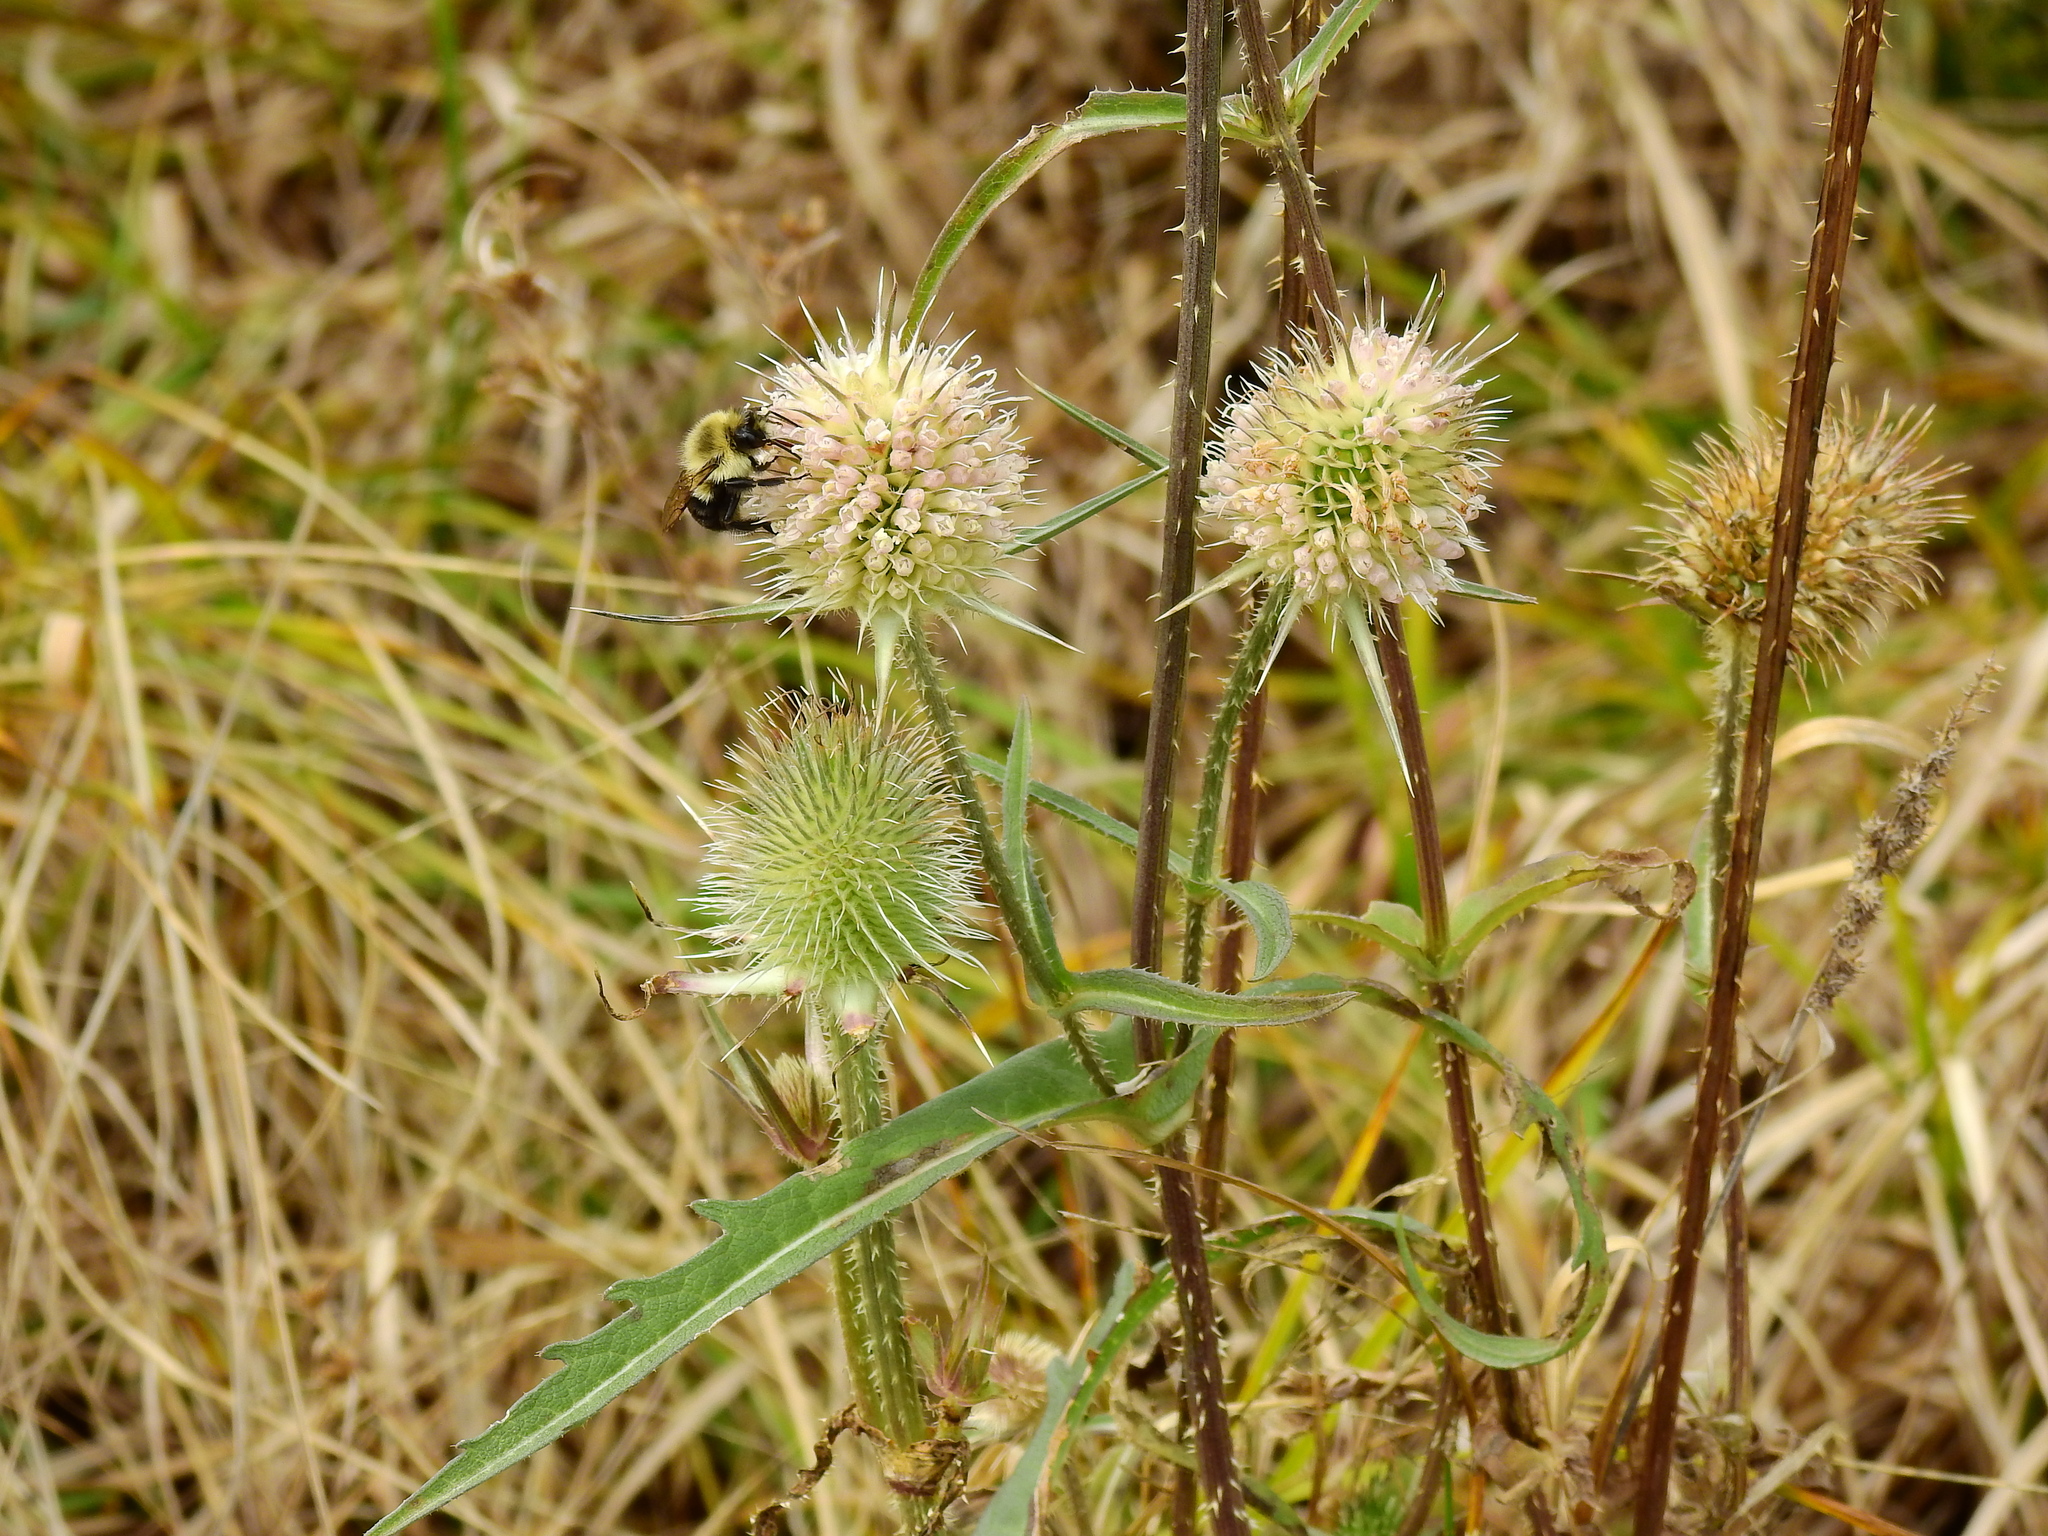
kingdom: Plantae
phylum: Tracheophyta
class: Magnoliopsida
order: Dipsacales
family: Caprifoliaceae
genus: Dipsacus
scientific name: Dipsacus laciniatus
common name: Cut-leaved teasel
